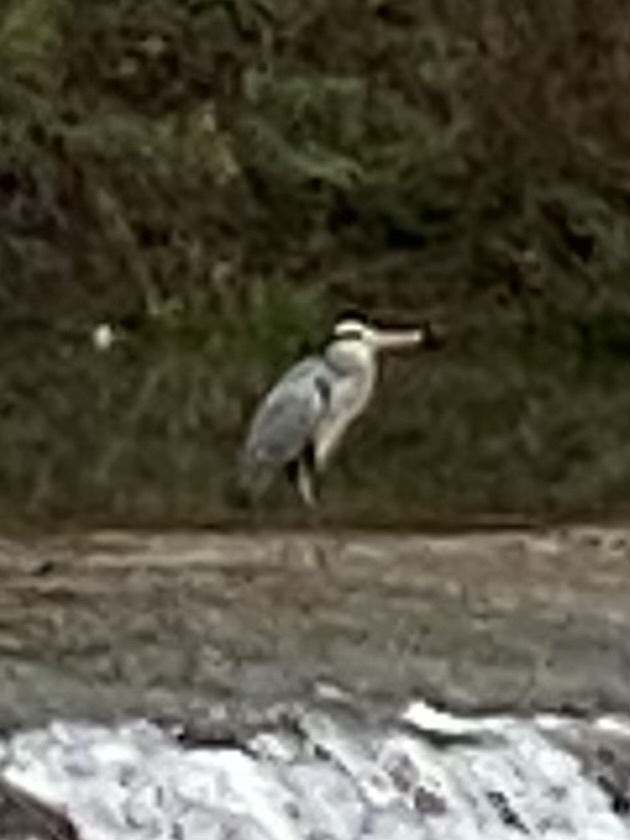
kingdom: Animalia
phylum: Chordata
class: Aves
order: Pelecaniformes
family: Ardeidae
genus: Ardea
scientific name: Ardea cinerea
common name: Grey heron
